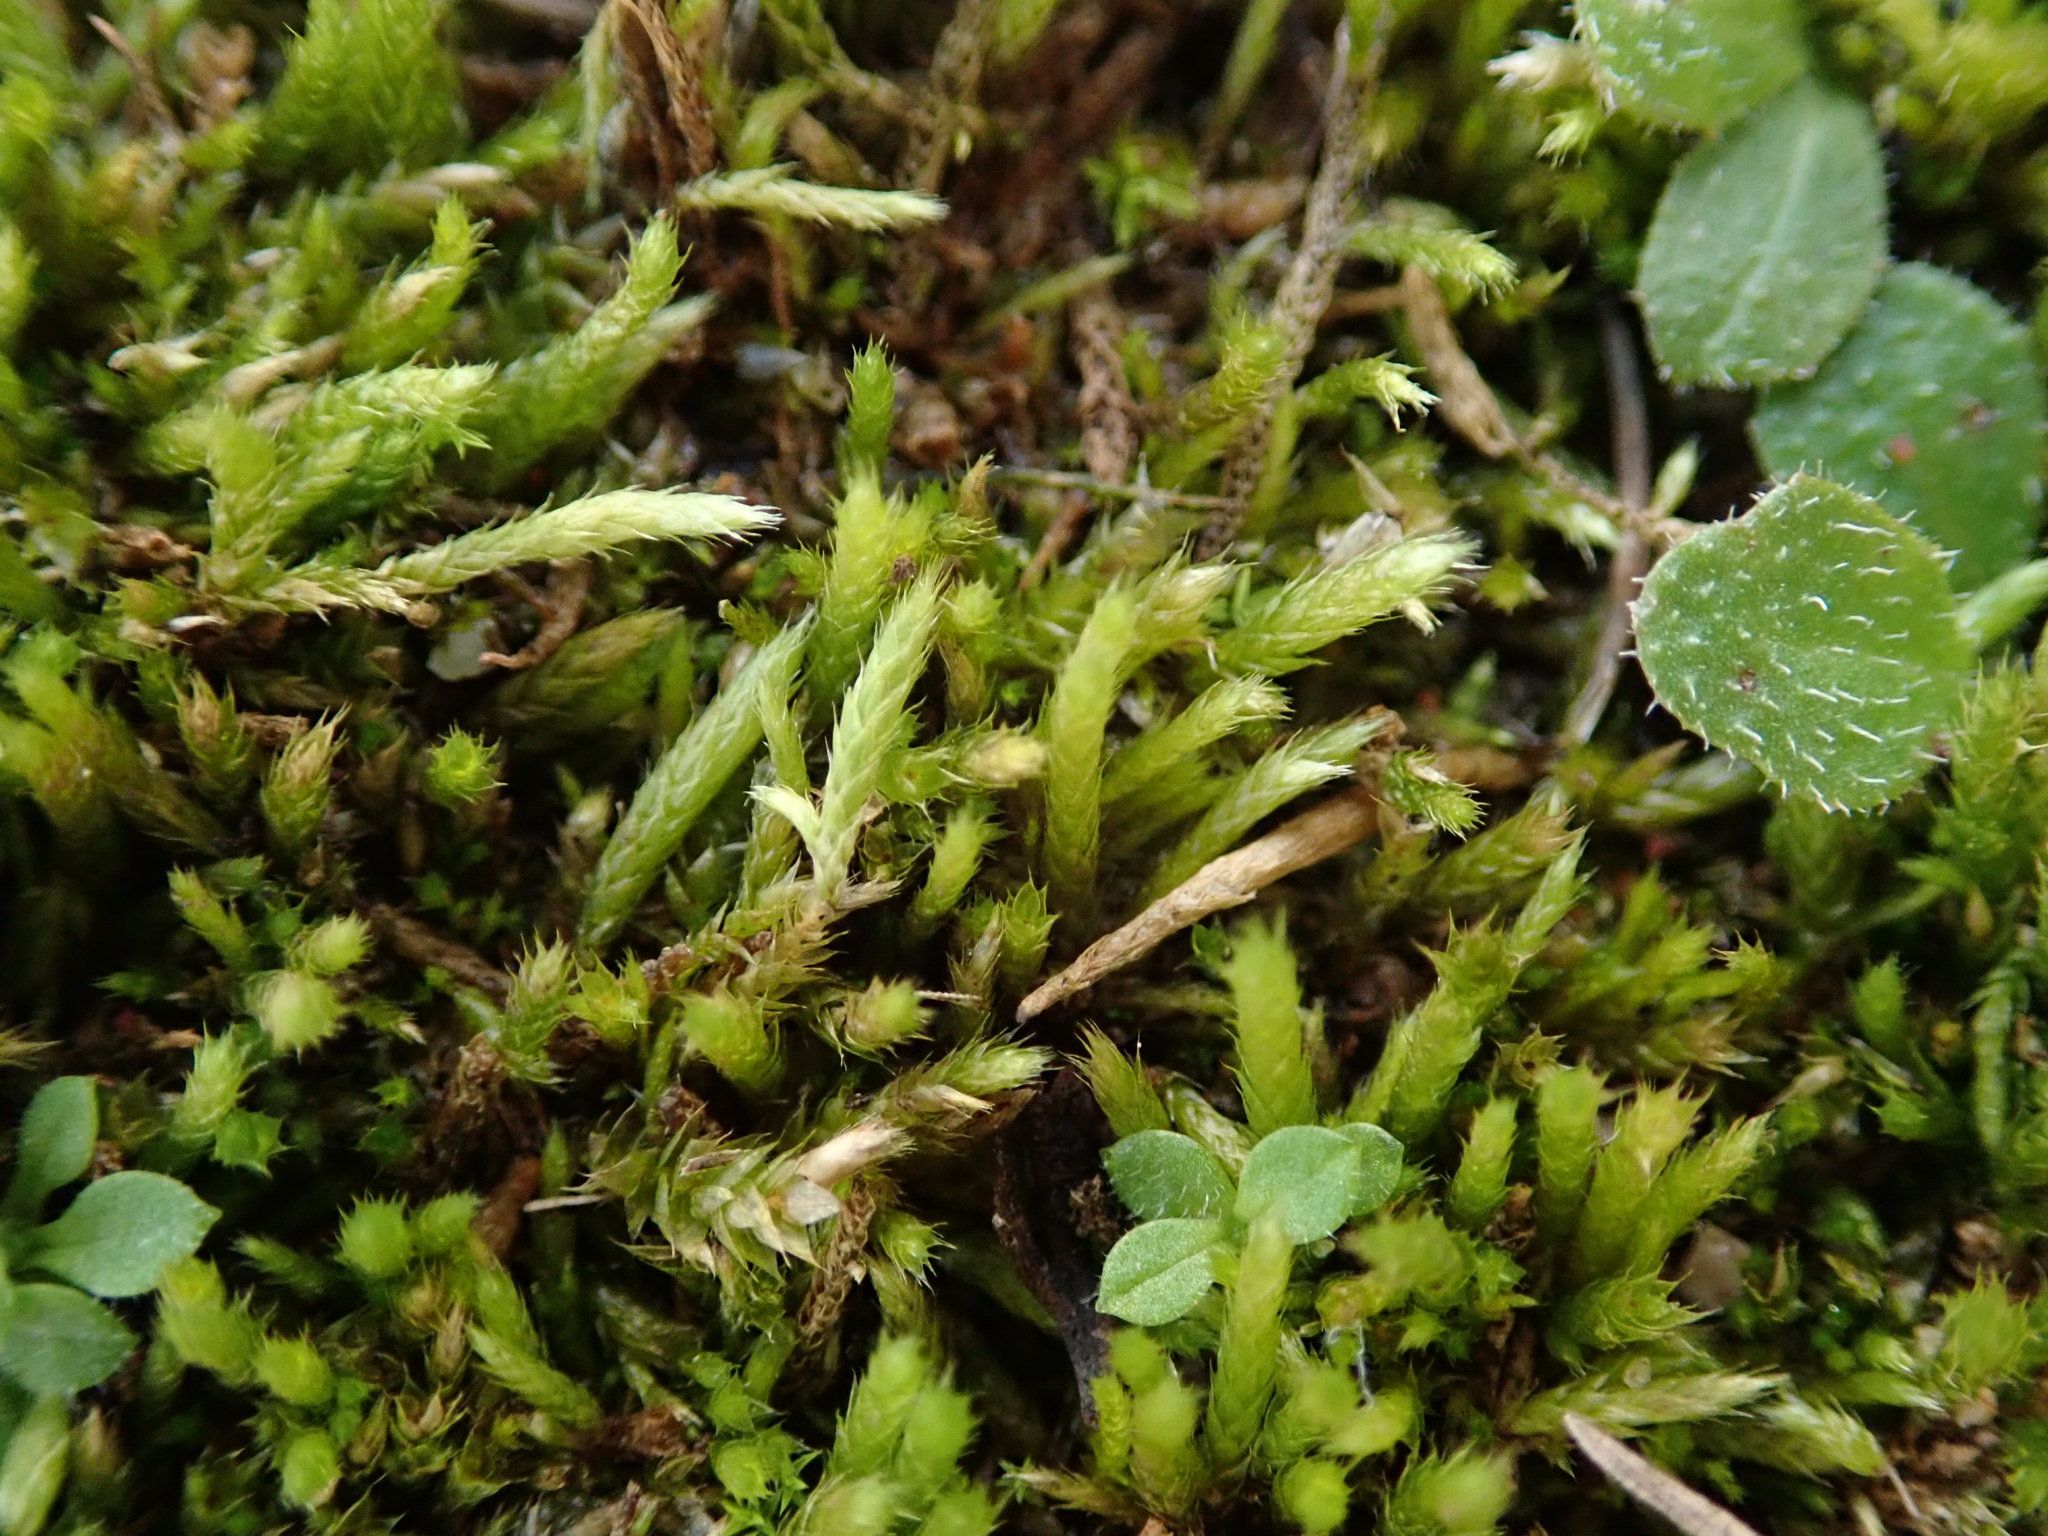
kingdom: Plantae
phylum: Bryophyta
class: Bryopsida
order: Hypnales
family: Brachytheciaceae
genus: Brachythecium
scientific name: Brachythecium albicans
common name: Whitish ragged moss
